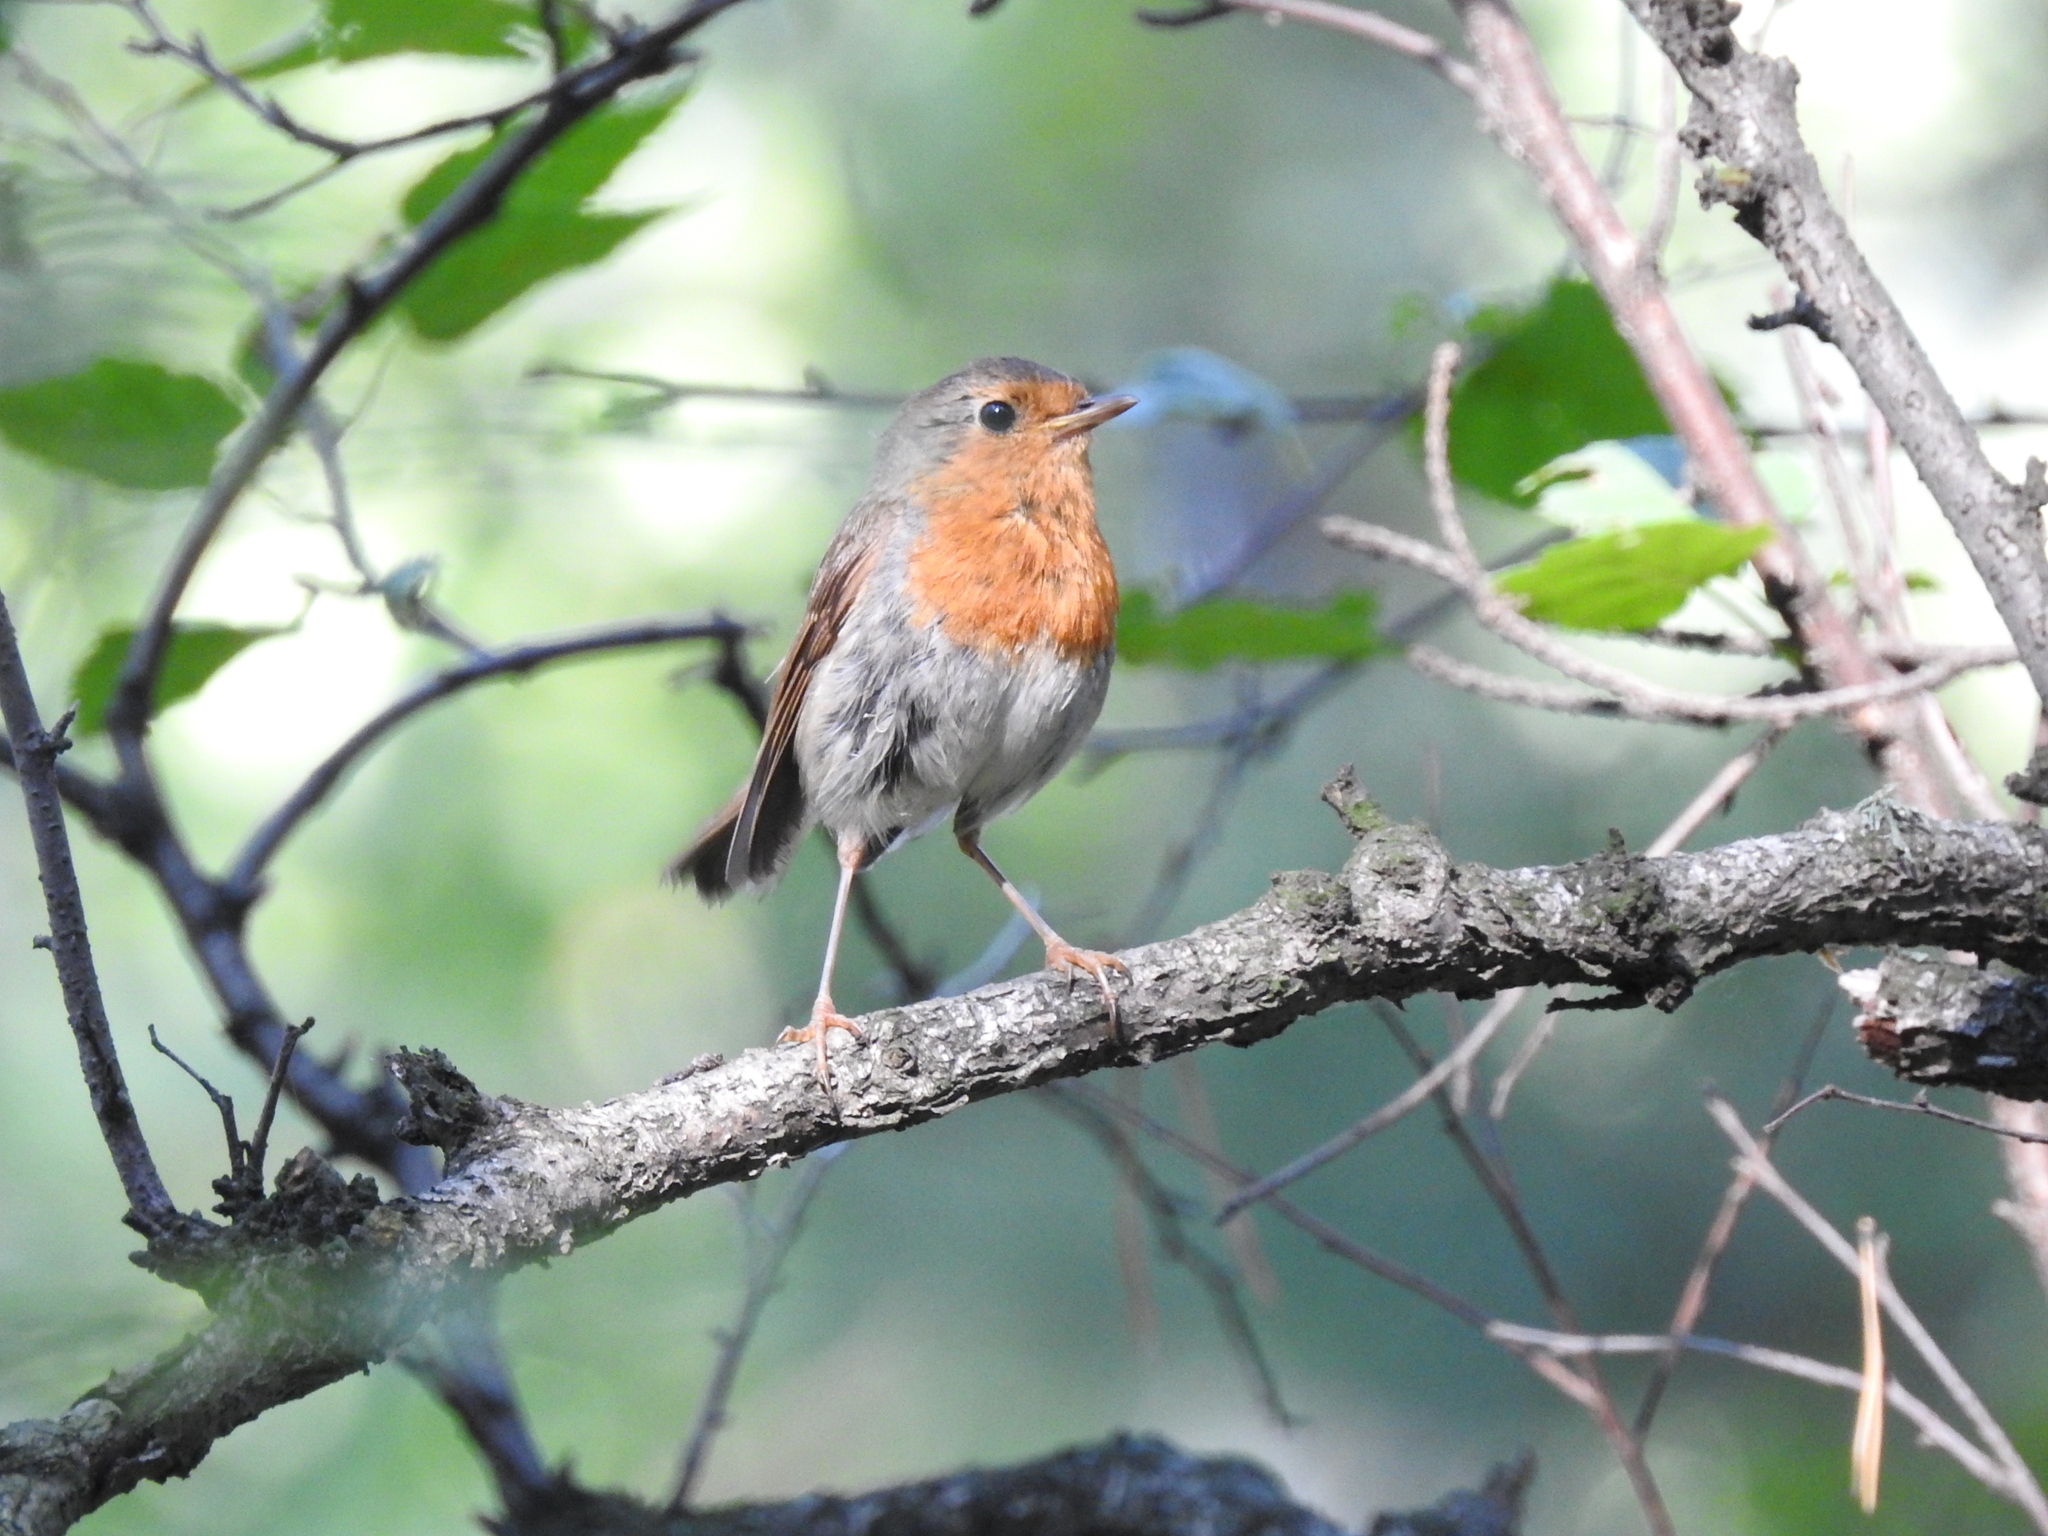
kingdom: Animalia
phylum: Chordata
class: Aves
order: Passeriformes
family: Muscicapidae
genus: Erithacus
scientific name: Erithacus rubecula
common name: European robin
